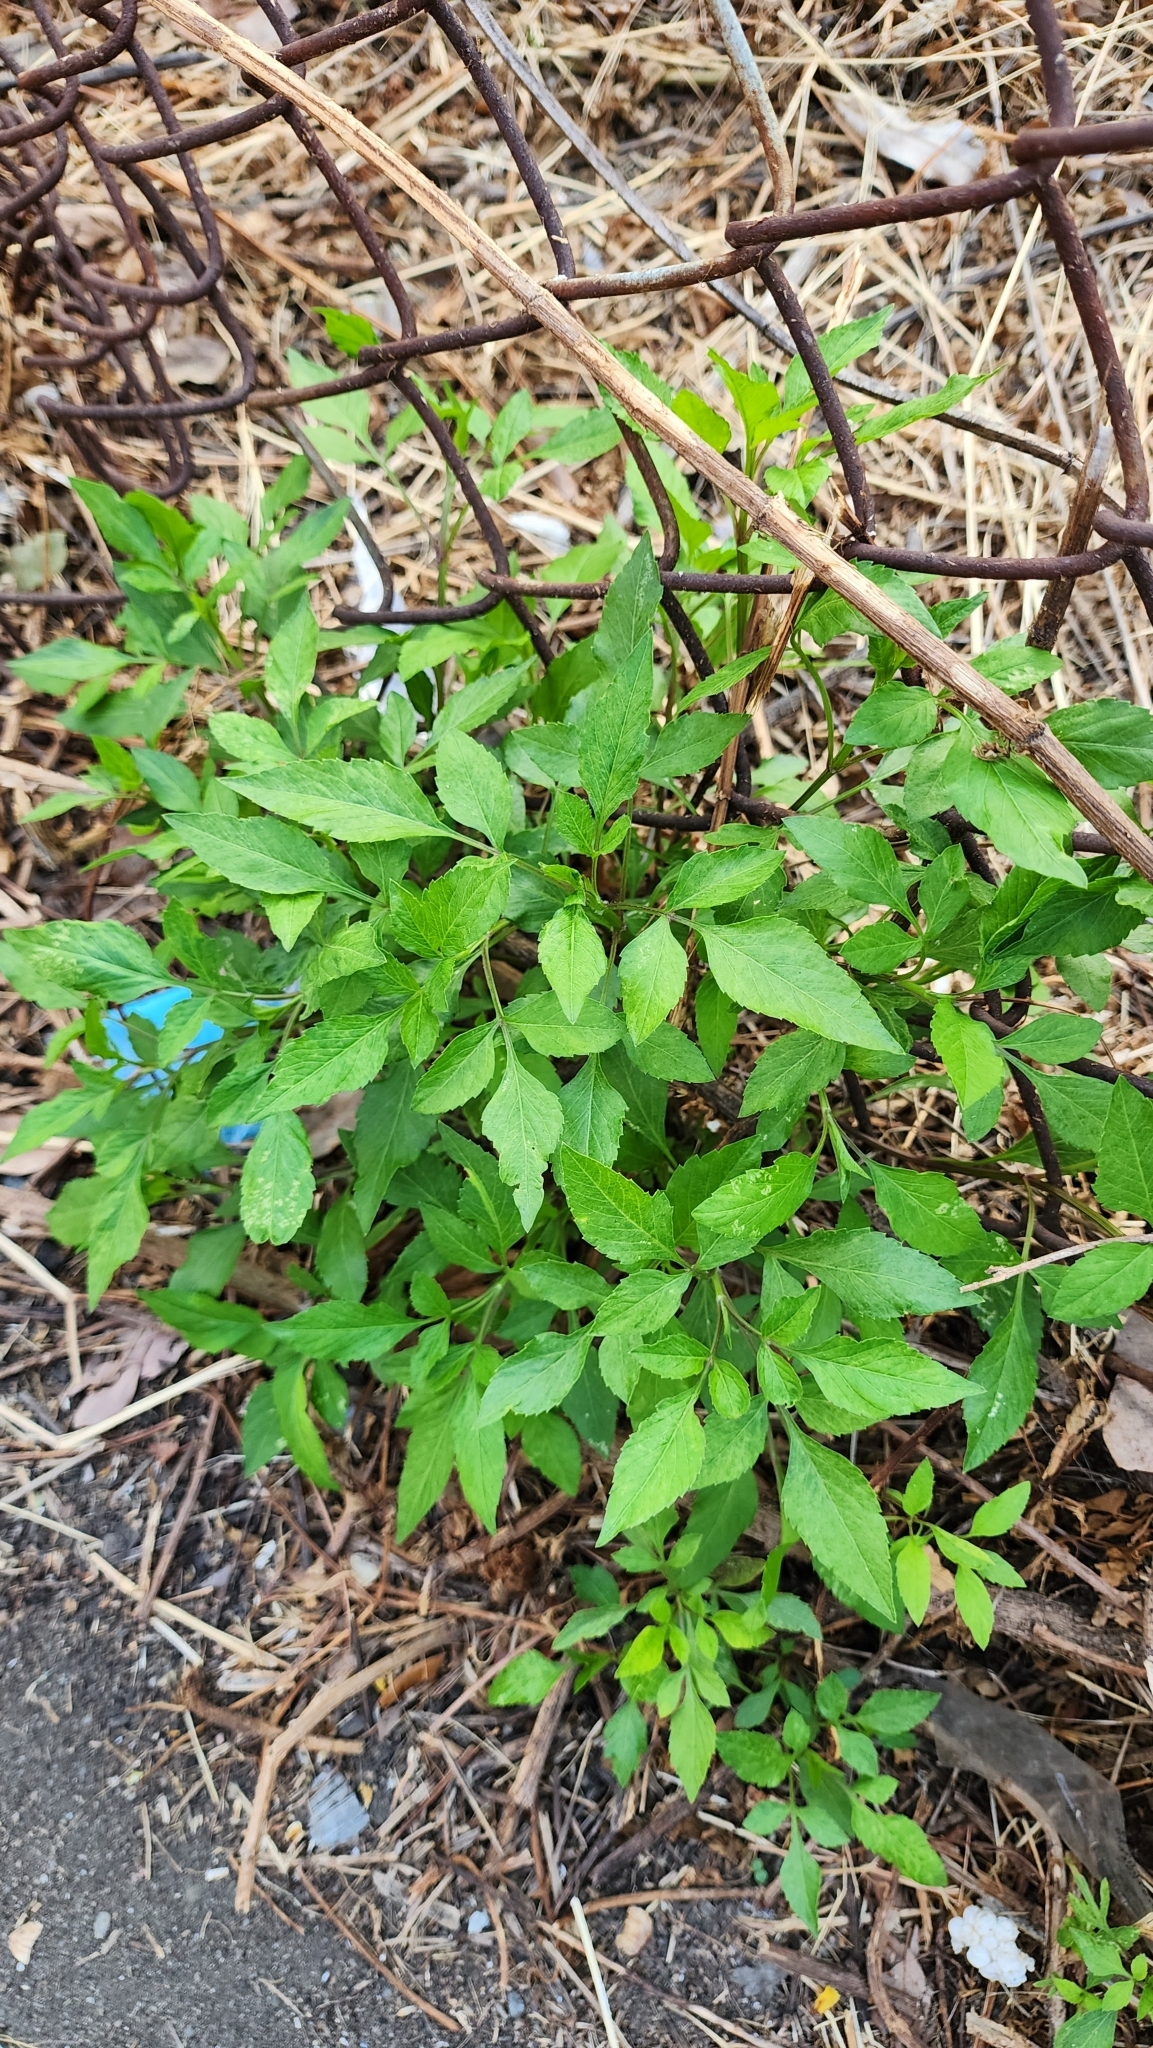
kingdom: Plantae
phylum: Tracheophyta
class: Magnoliopsida
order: Asterales
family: Asteraceae
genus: Bidens
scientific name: Bidens alba
